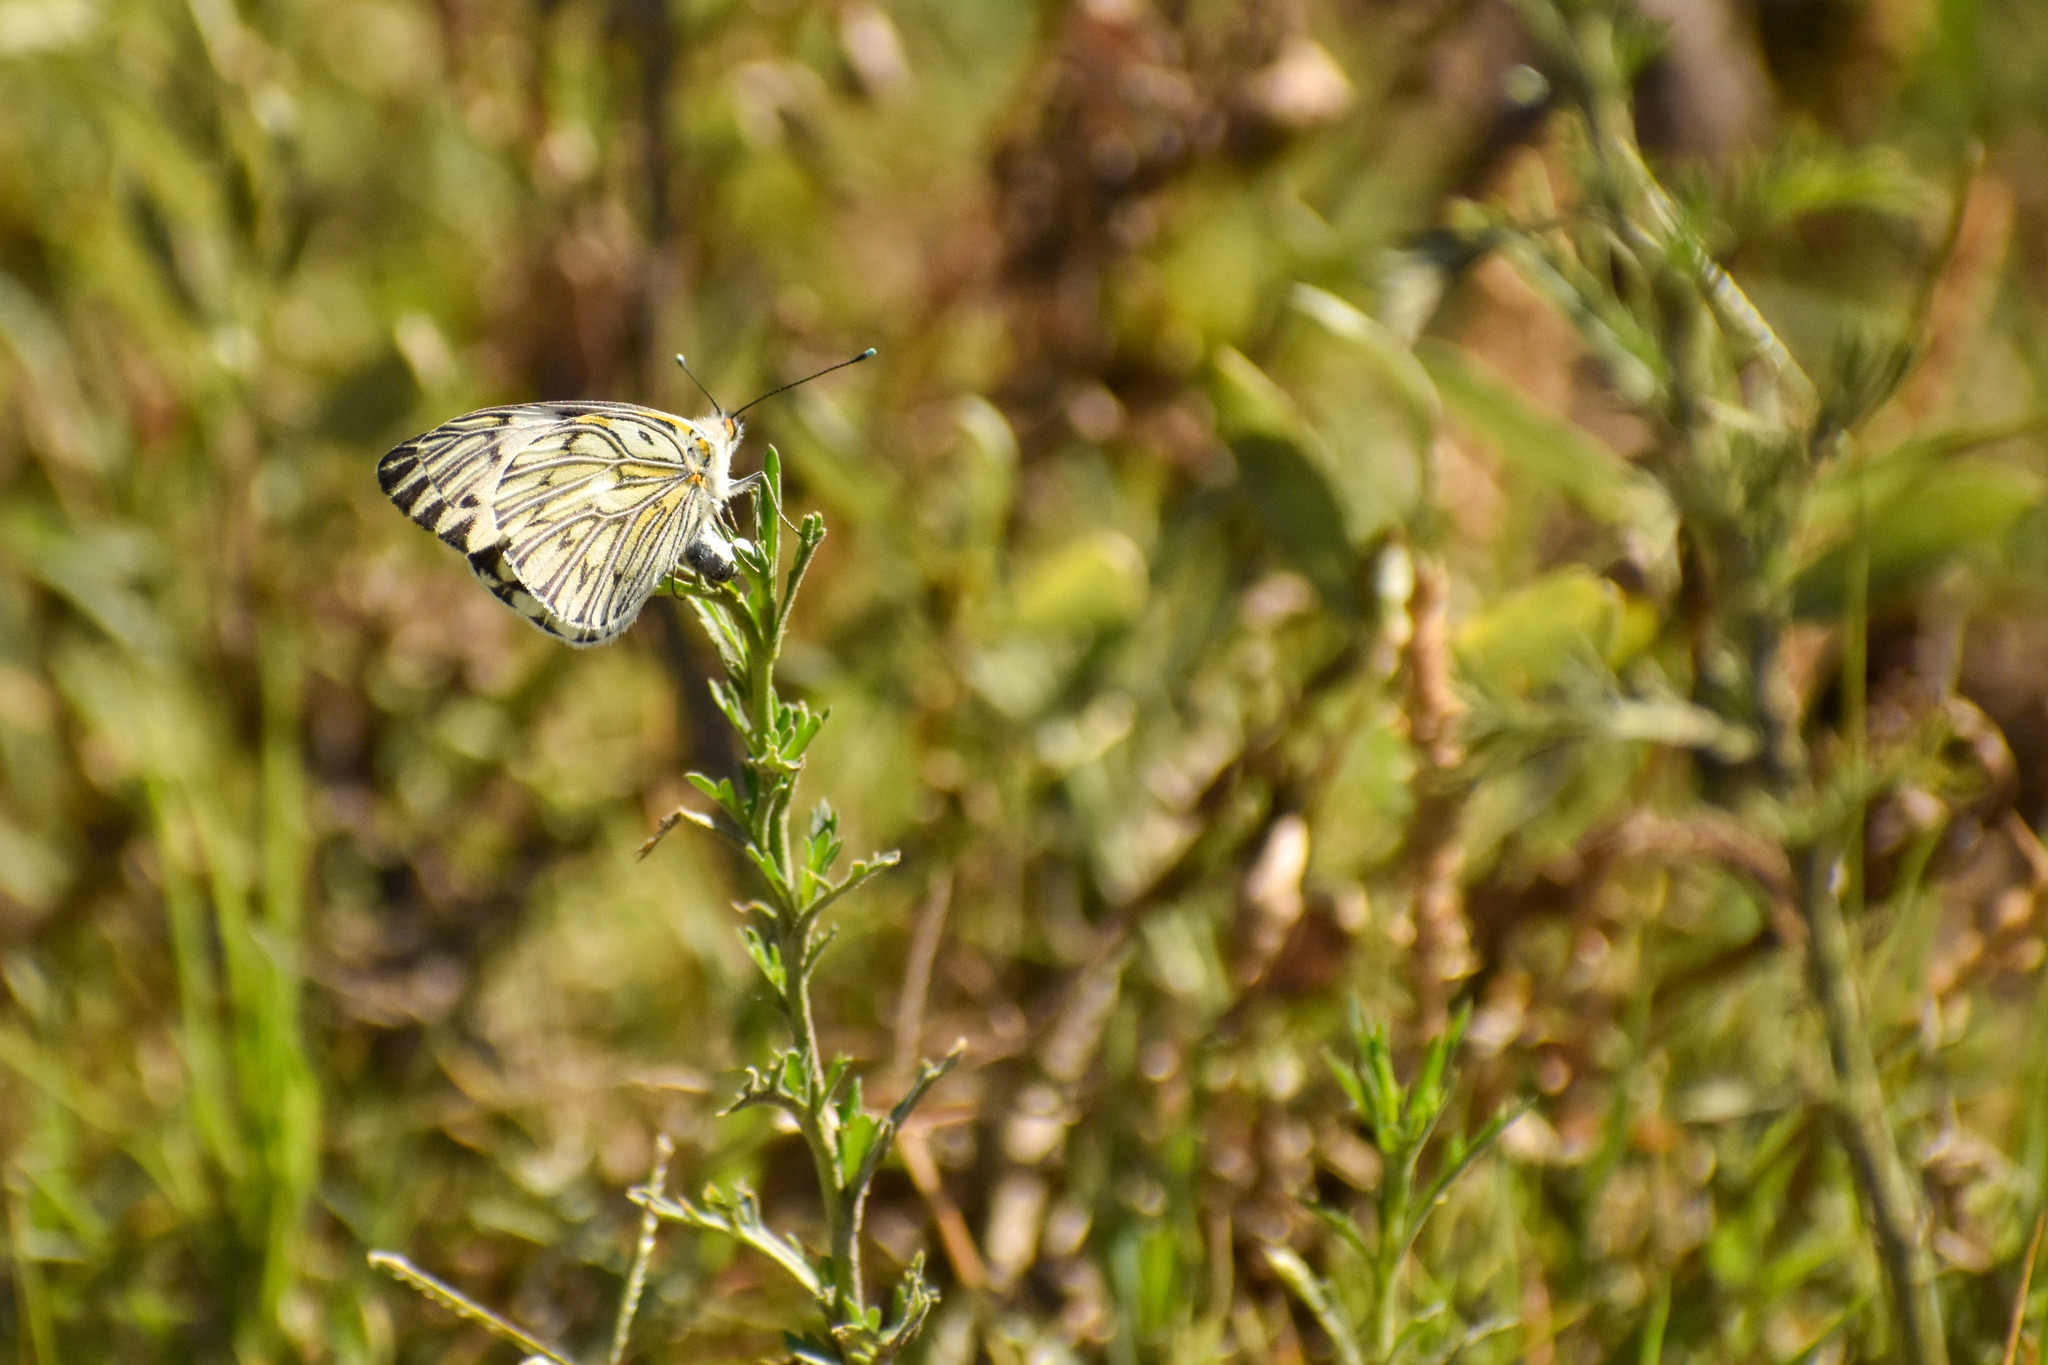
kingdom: Animalia
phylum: Arthropoda
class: Insecta
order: Lepidoptera
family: Pieridae
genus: Tatochila
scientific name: Tatochila autodice
